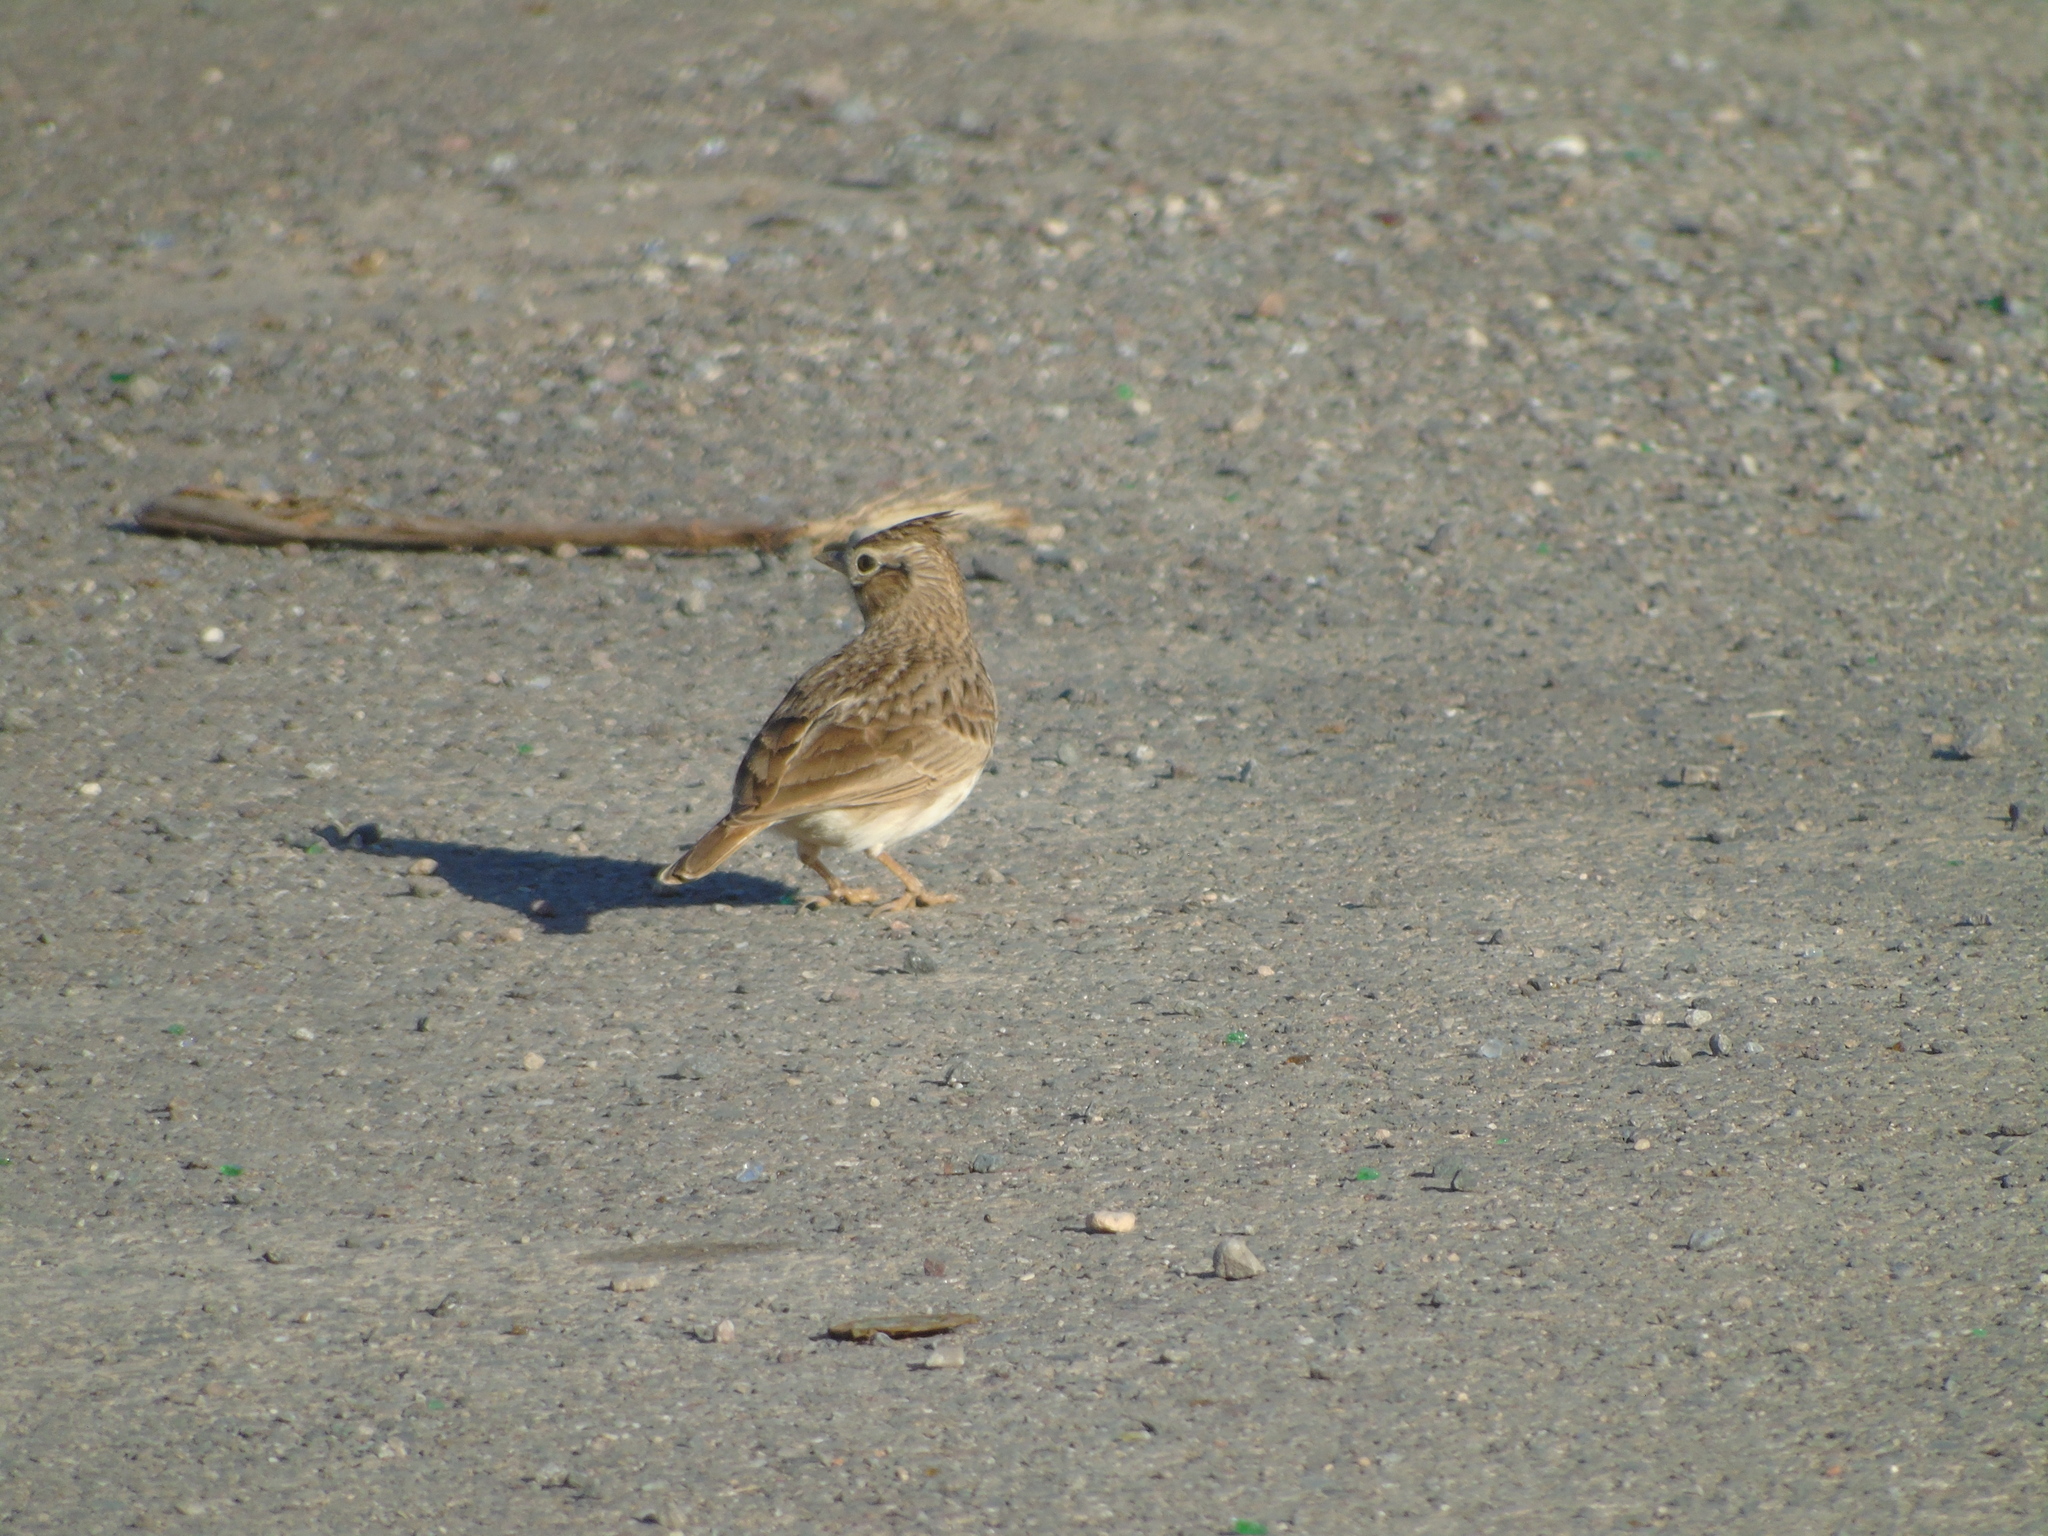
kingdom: Animalia
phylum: Chordata
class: Aves
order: Passeriformes
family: Alaudidae
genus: Galerida
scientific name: Galerida theklae
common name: Thekla lark
